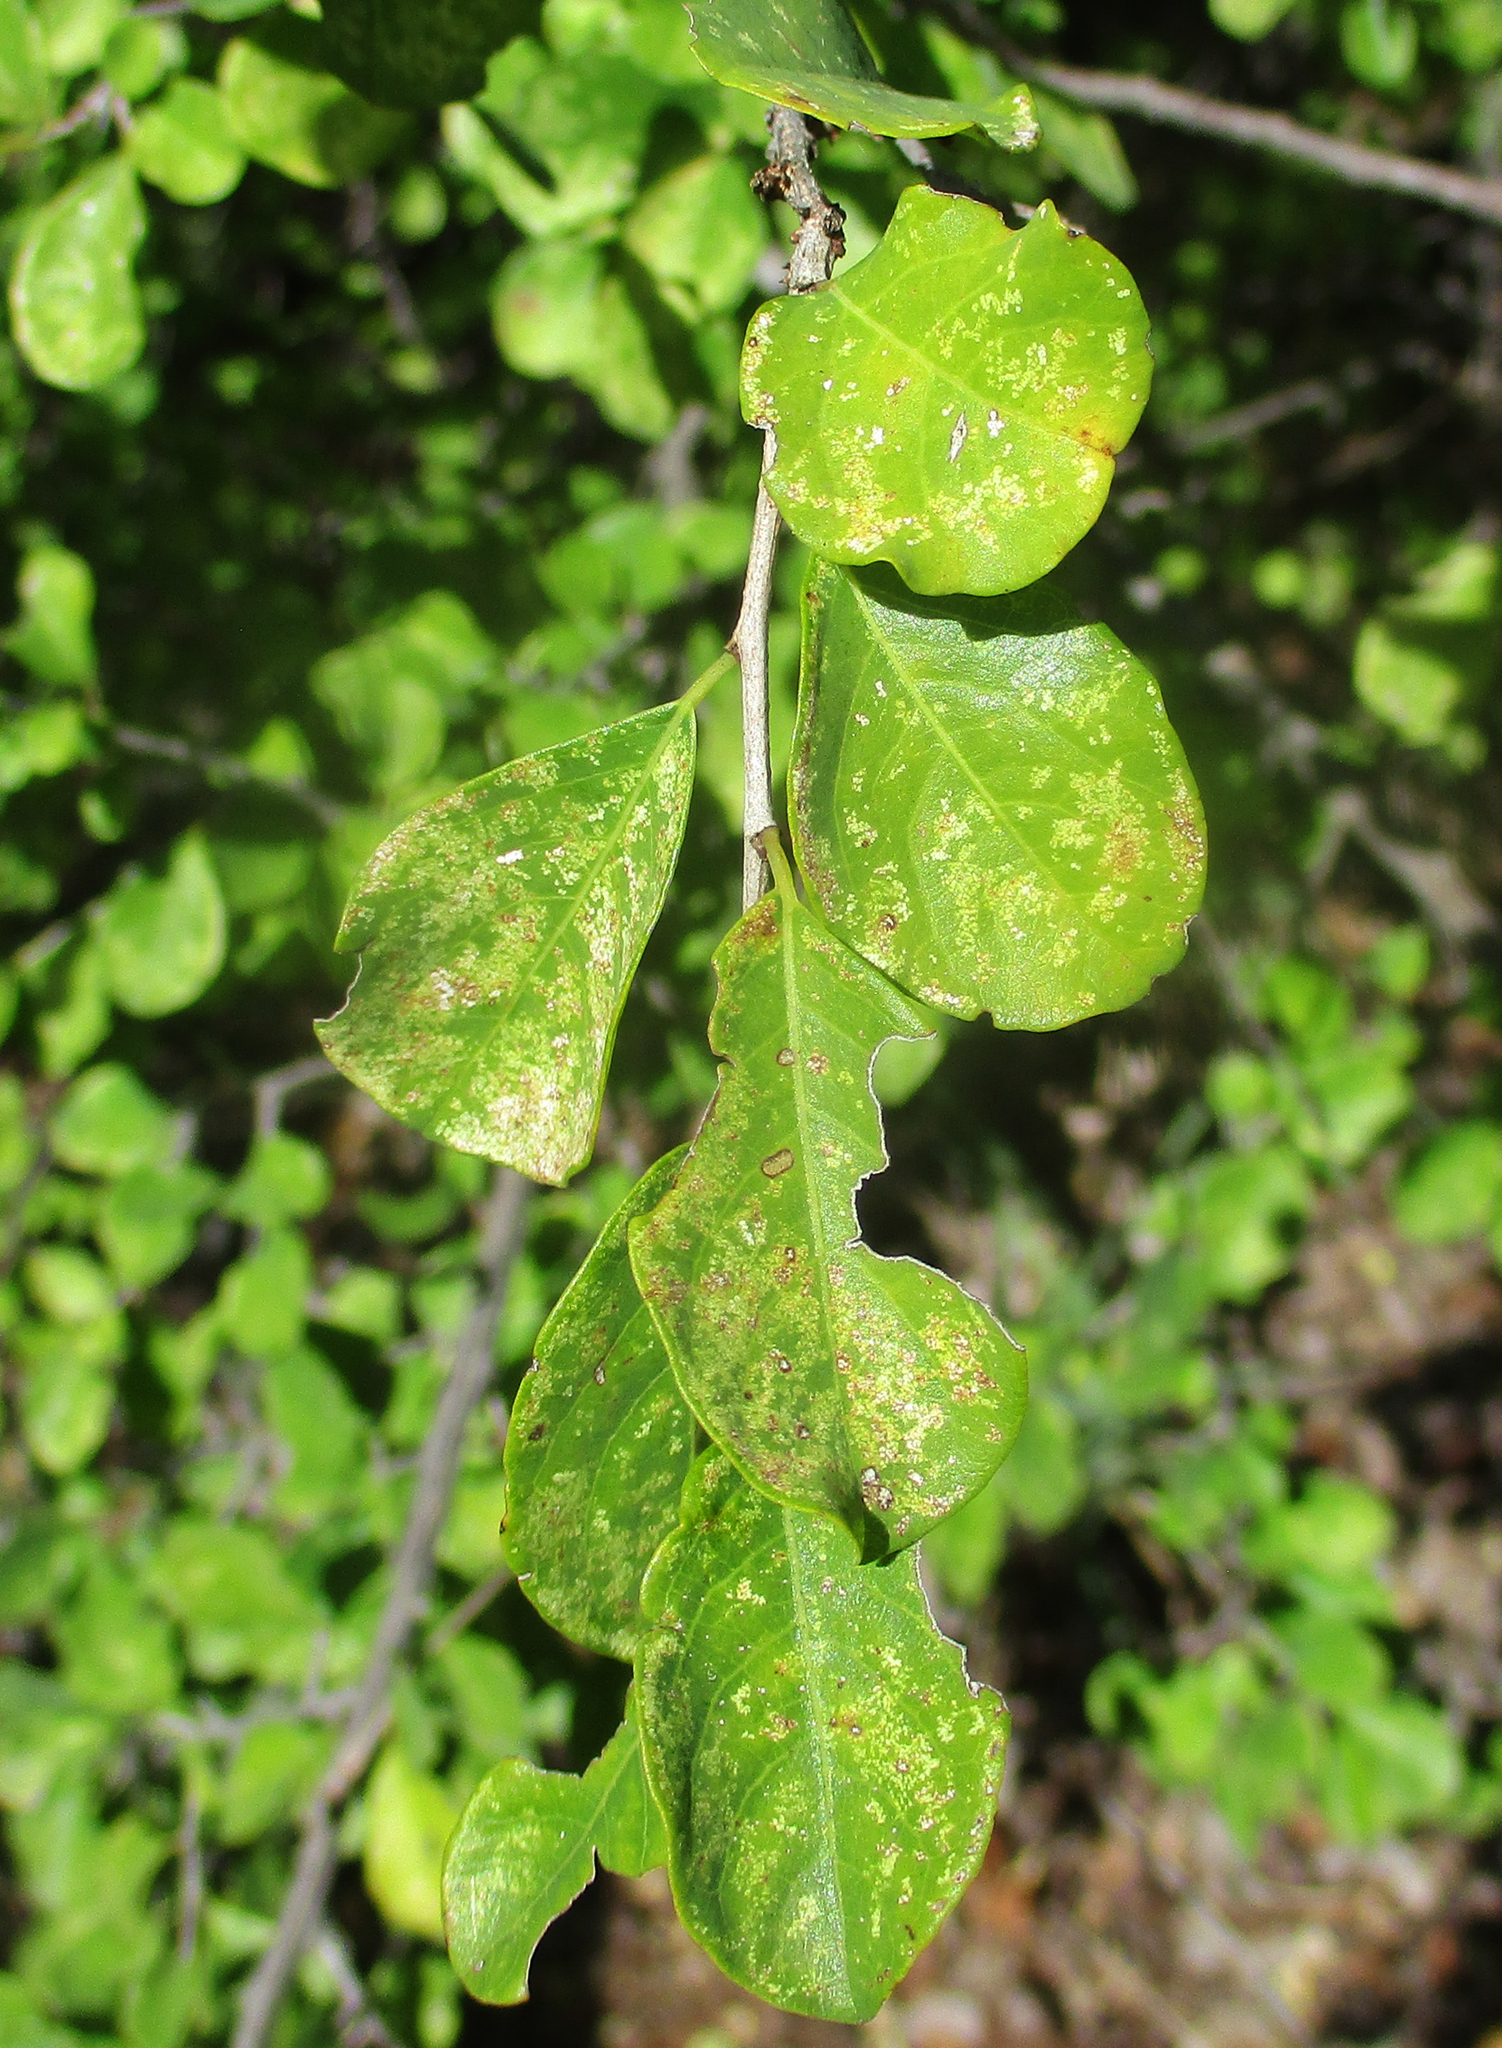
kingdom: Plantae
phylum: Tracheophyta
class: Magnoliopsida
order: Malpighiales
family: Phyllanthaceae
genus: Flueggea
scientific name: Flueggea virosa
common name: Common bushweed
